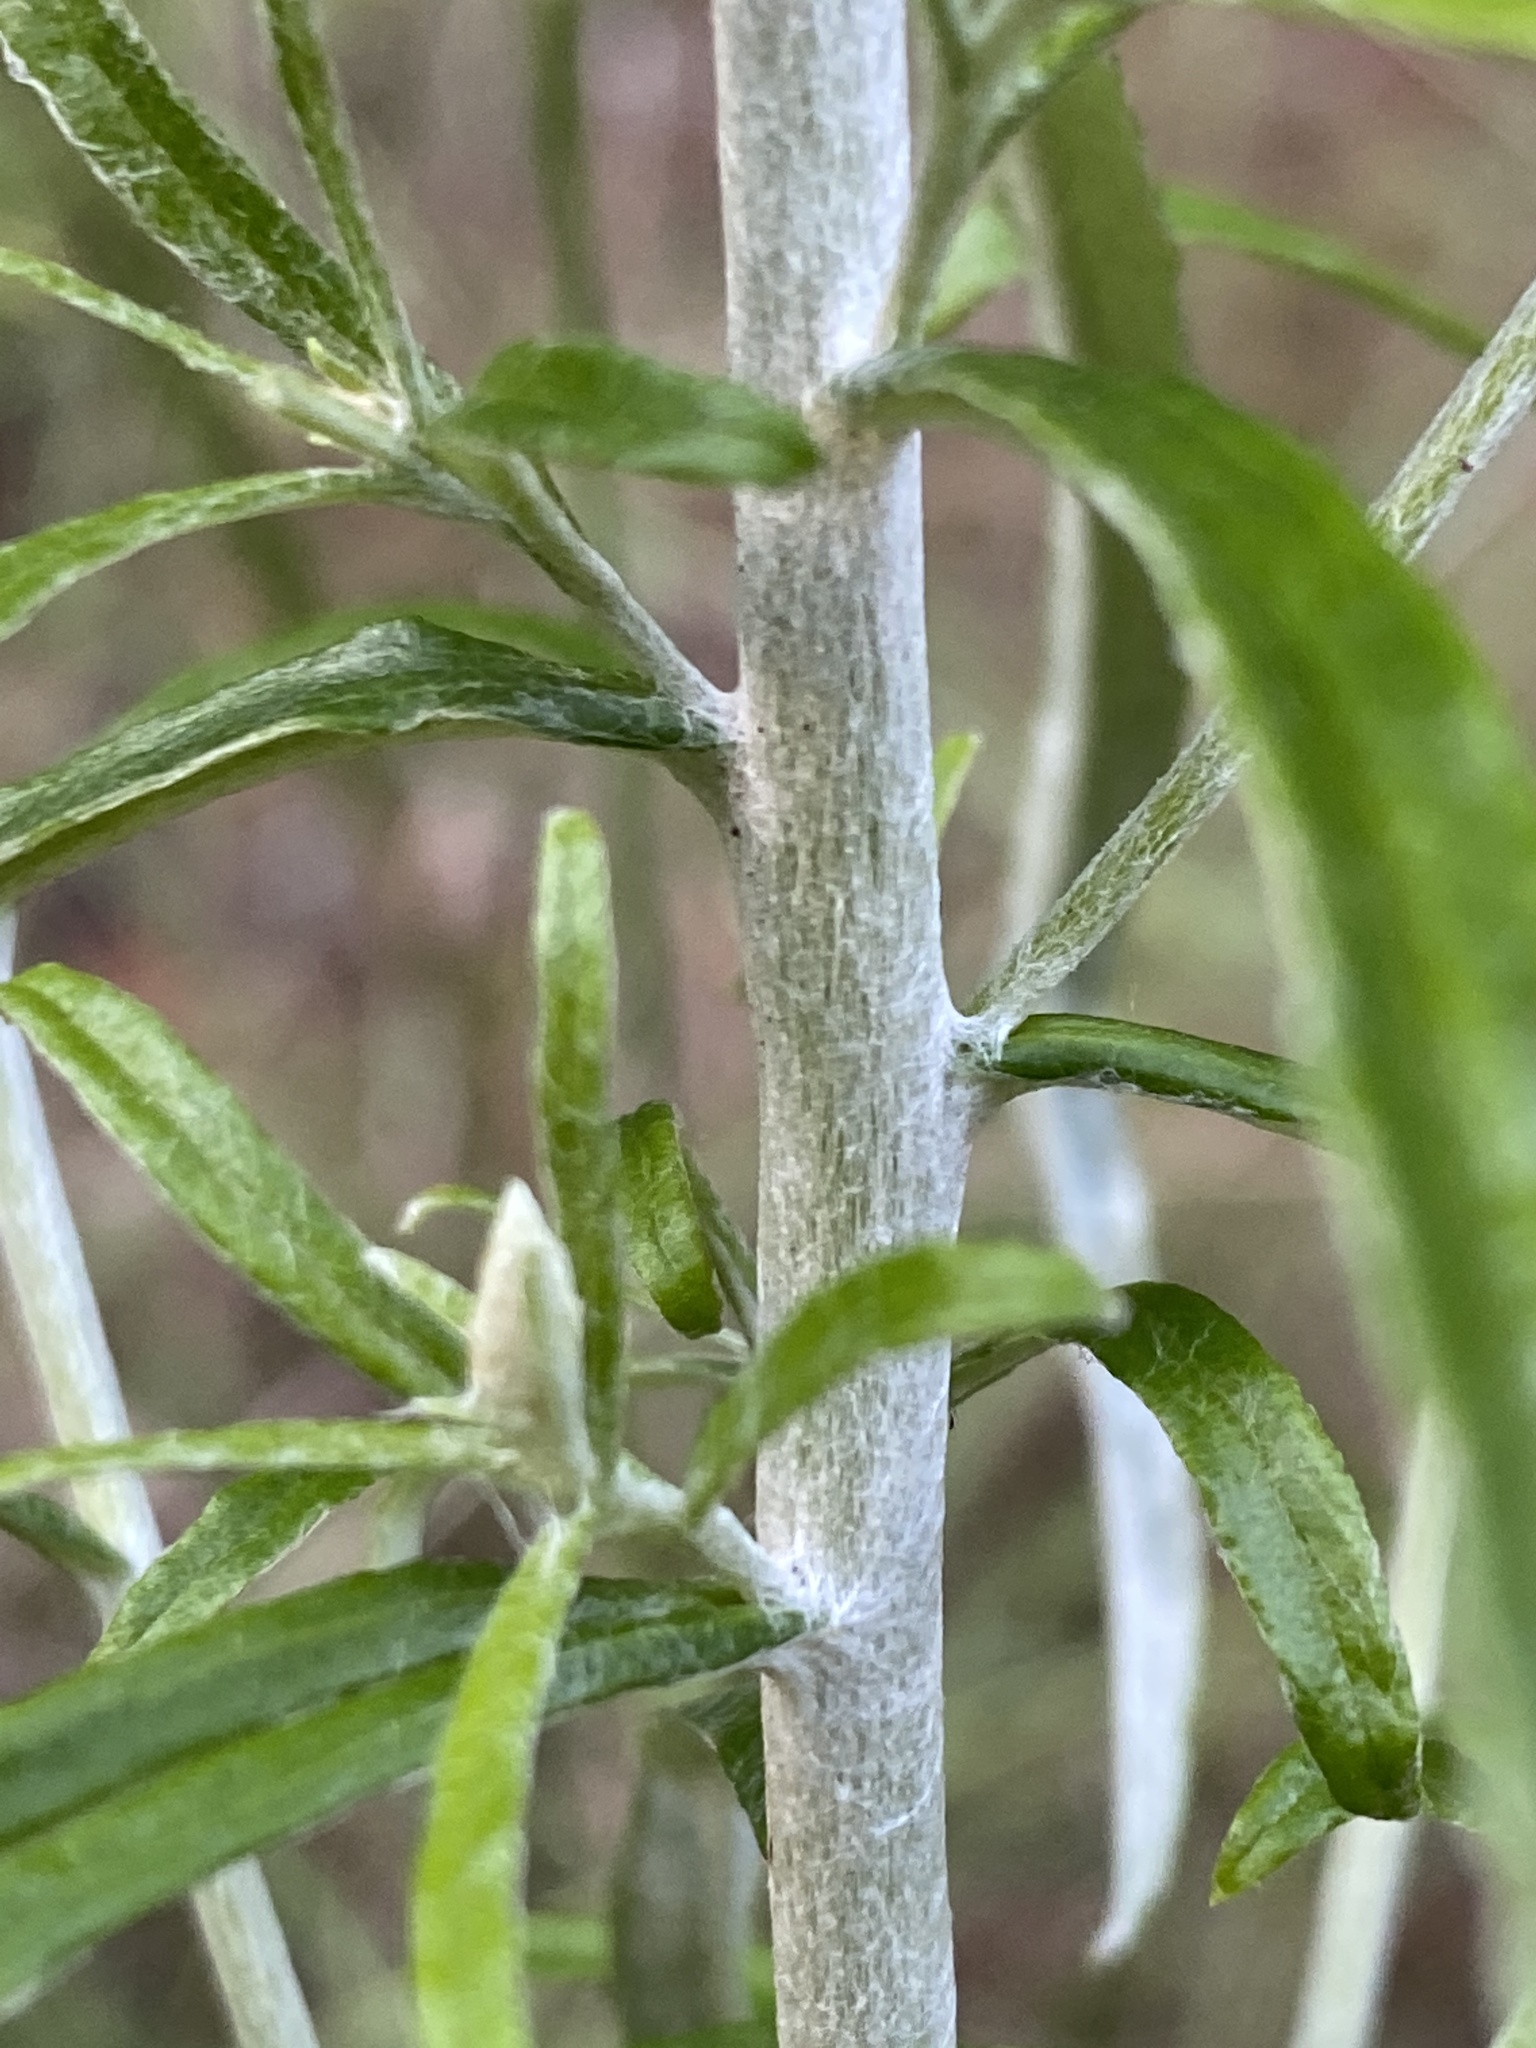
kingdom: Plantae
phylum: Tracheophyta
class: Magnoliopsida
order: Asterales
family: Asteraceae
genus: Pseudognaphalium
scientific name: Pseudognaphalium obtusifolium
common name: Eastern rabbit-tobacco
